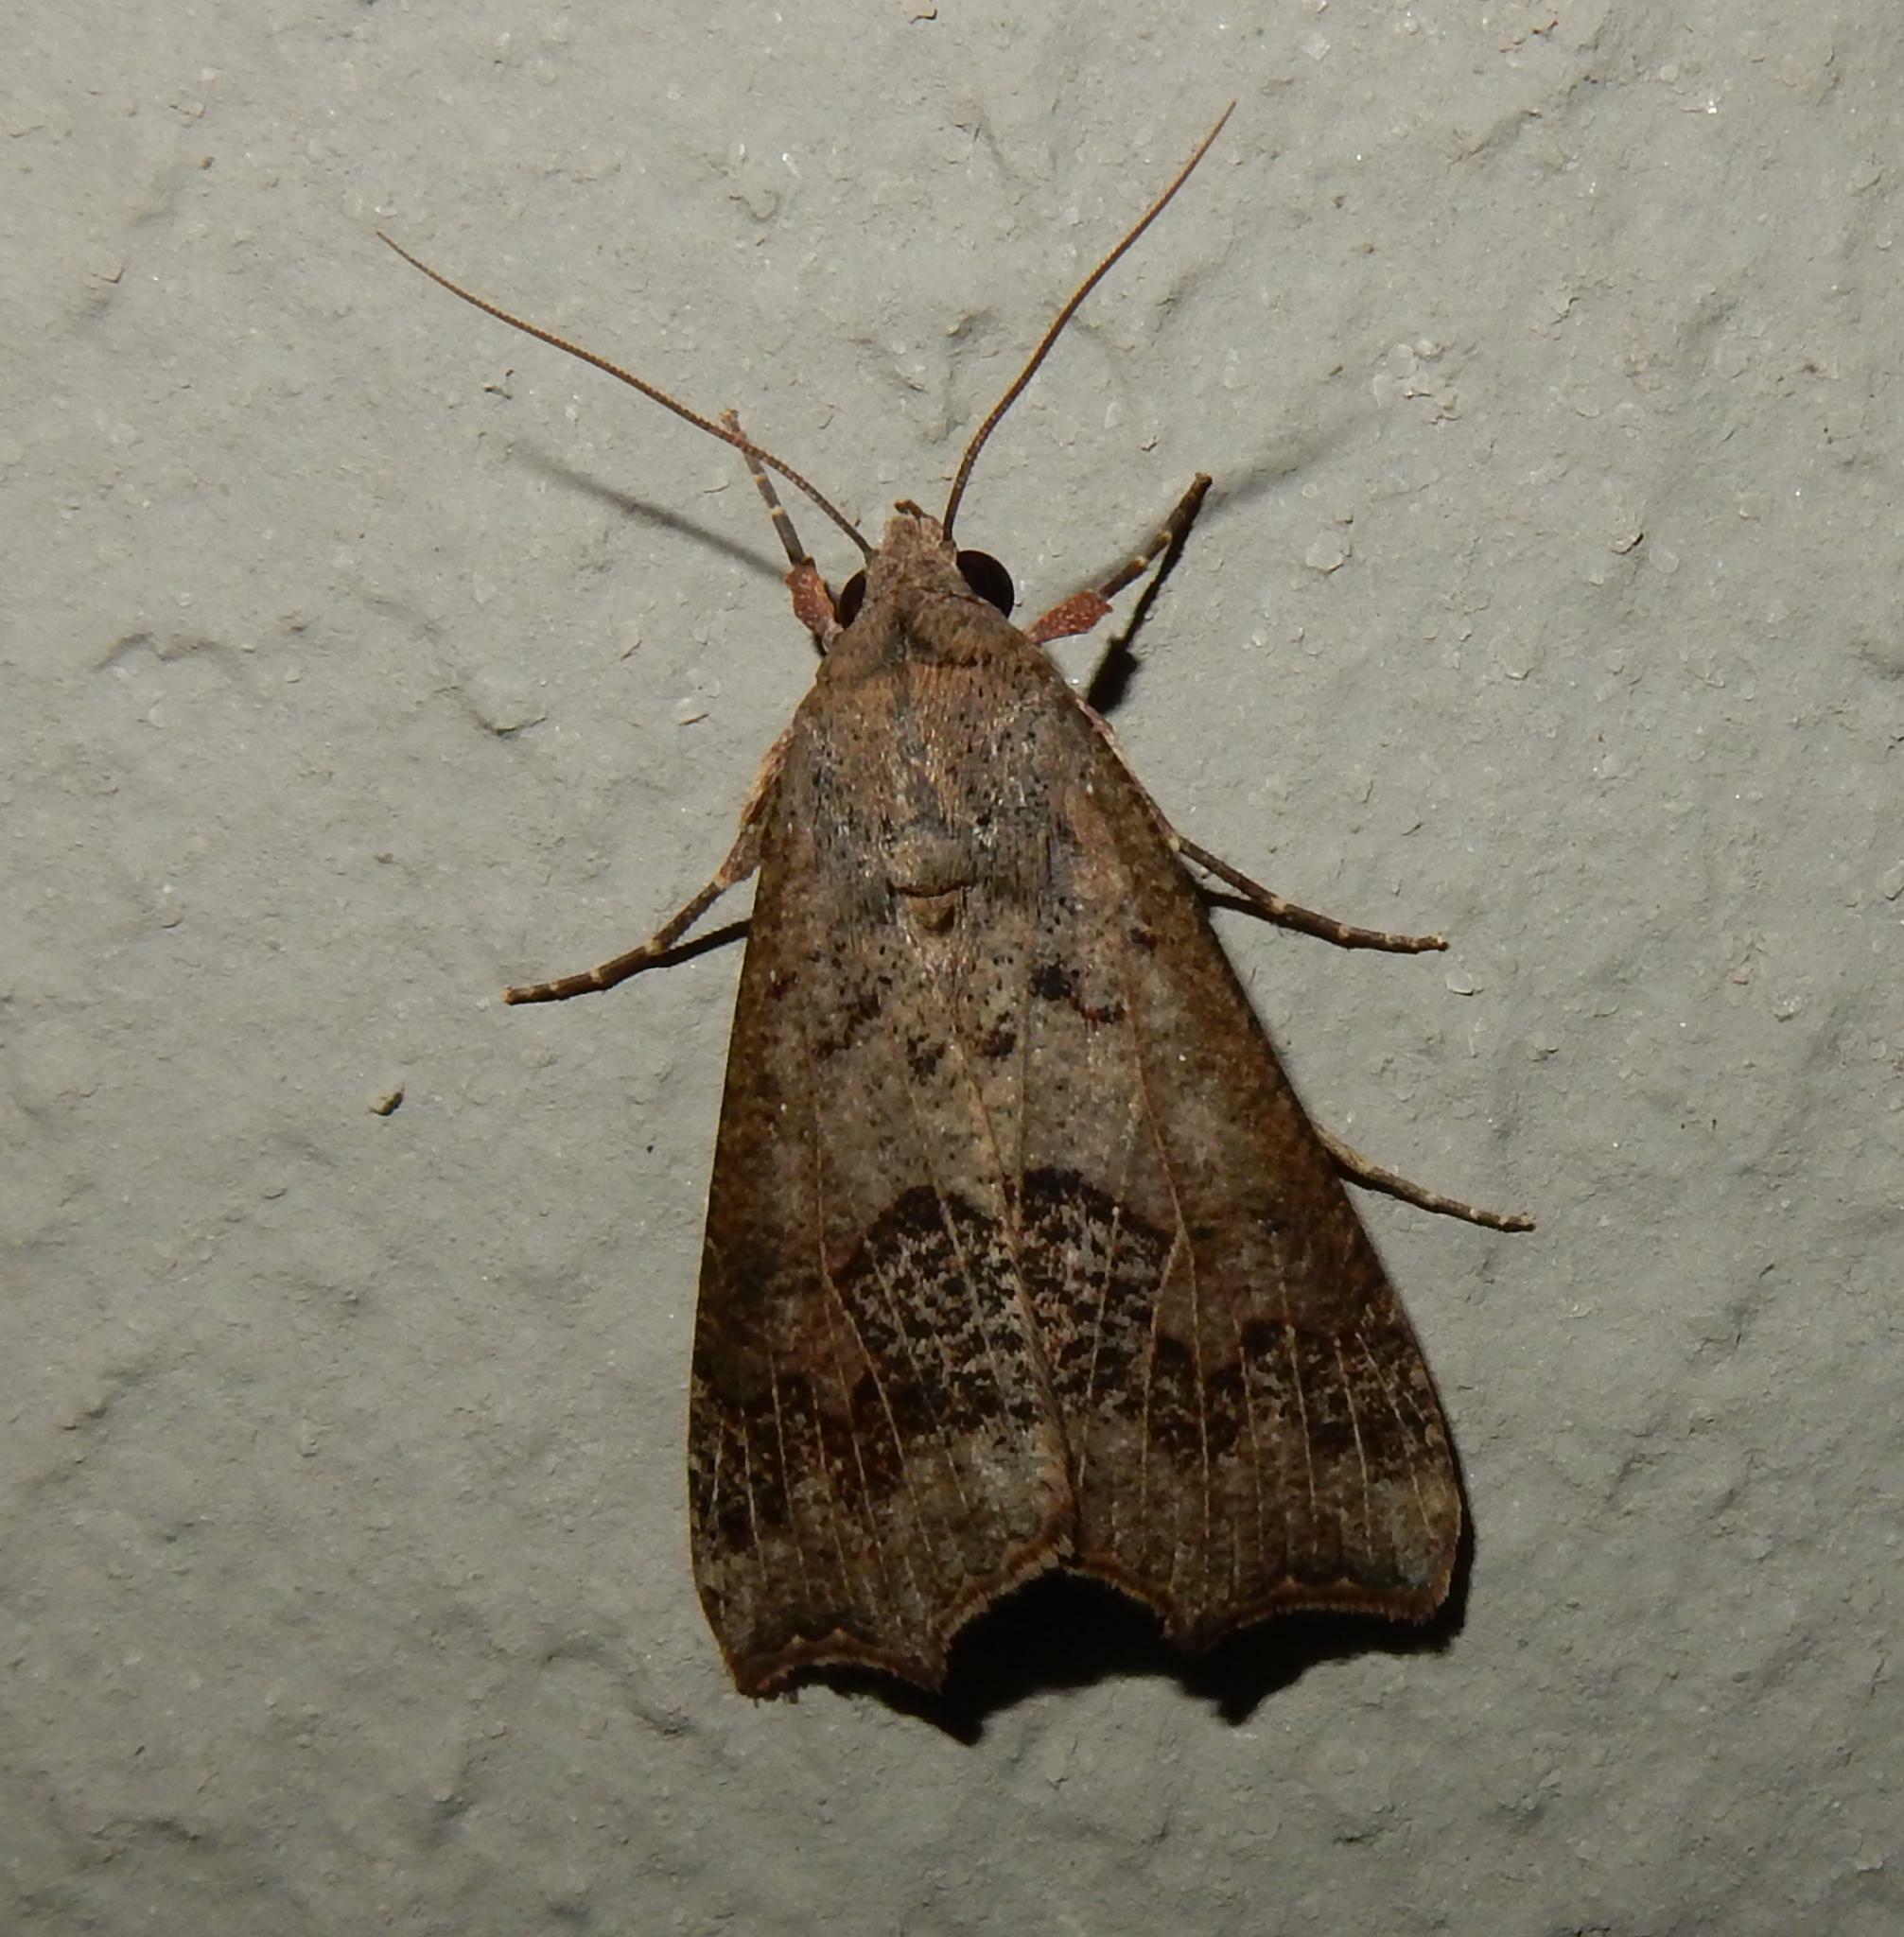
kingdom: Animalia
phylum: Arthropoda
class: Insecta
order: Lepidoptera
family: Erebidae
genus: Anomis
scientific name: Anomis sabulifera
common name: Angled gem
